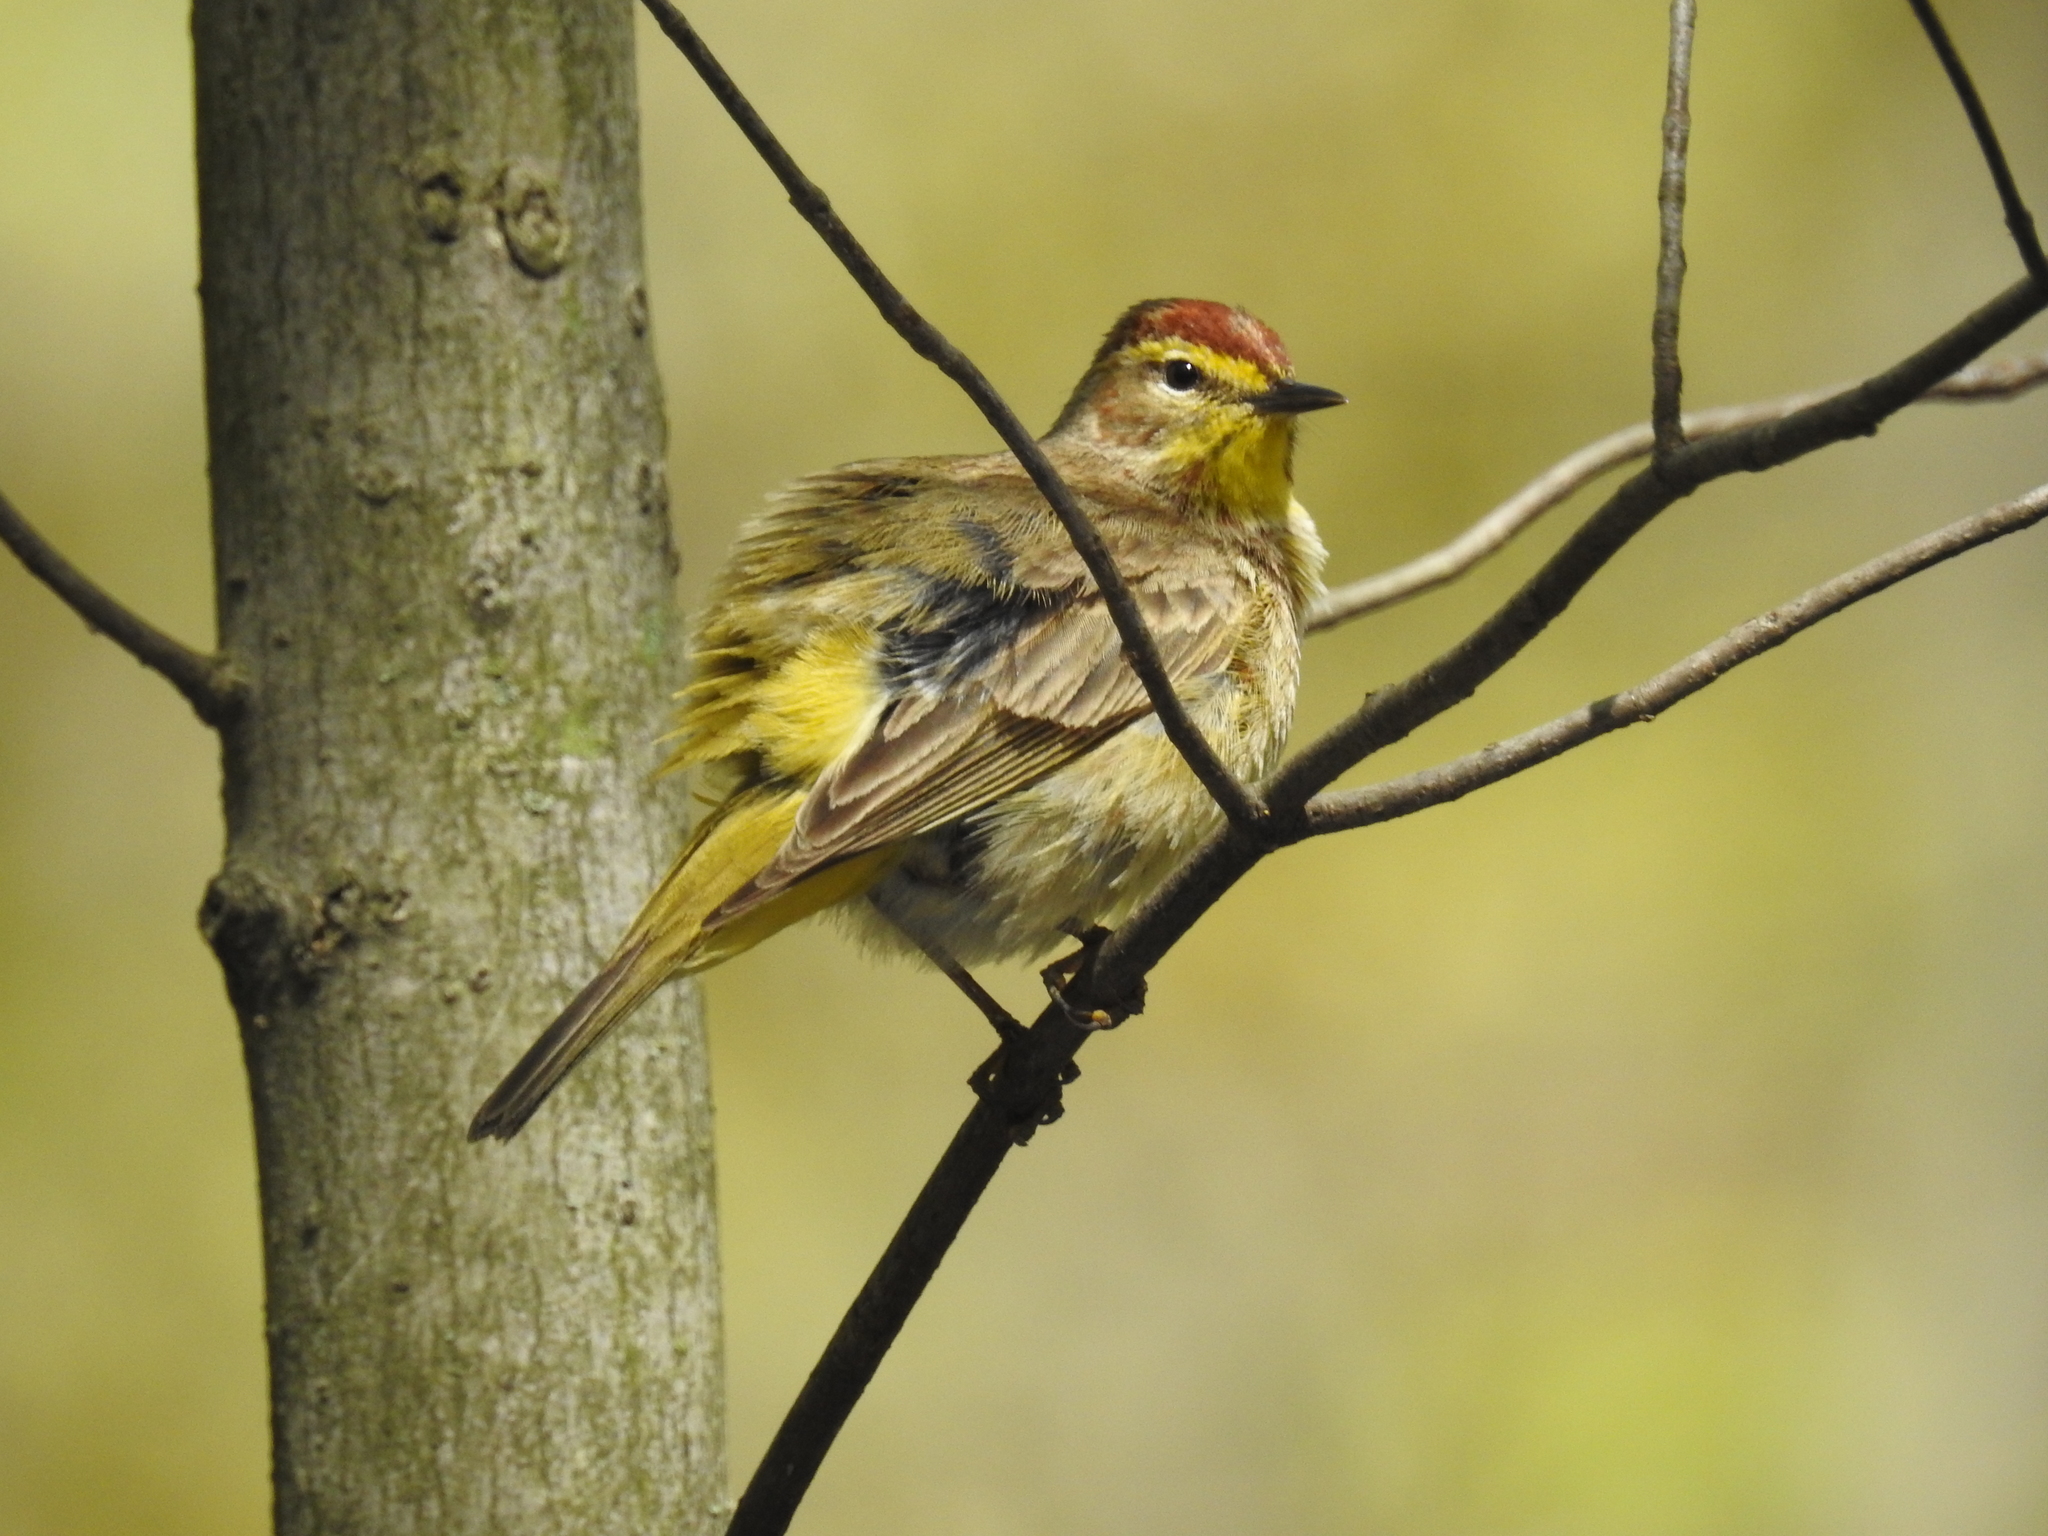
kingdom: Animalia
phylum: Chordata
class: Aves
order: Passeriformes
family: Parulidae
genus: Setophaga
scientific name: Setophaga palmarum
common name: Palm warbler
